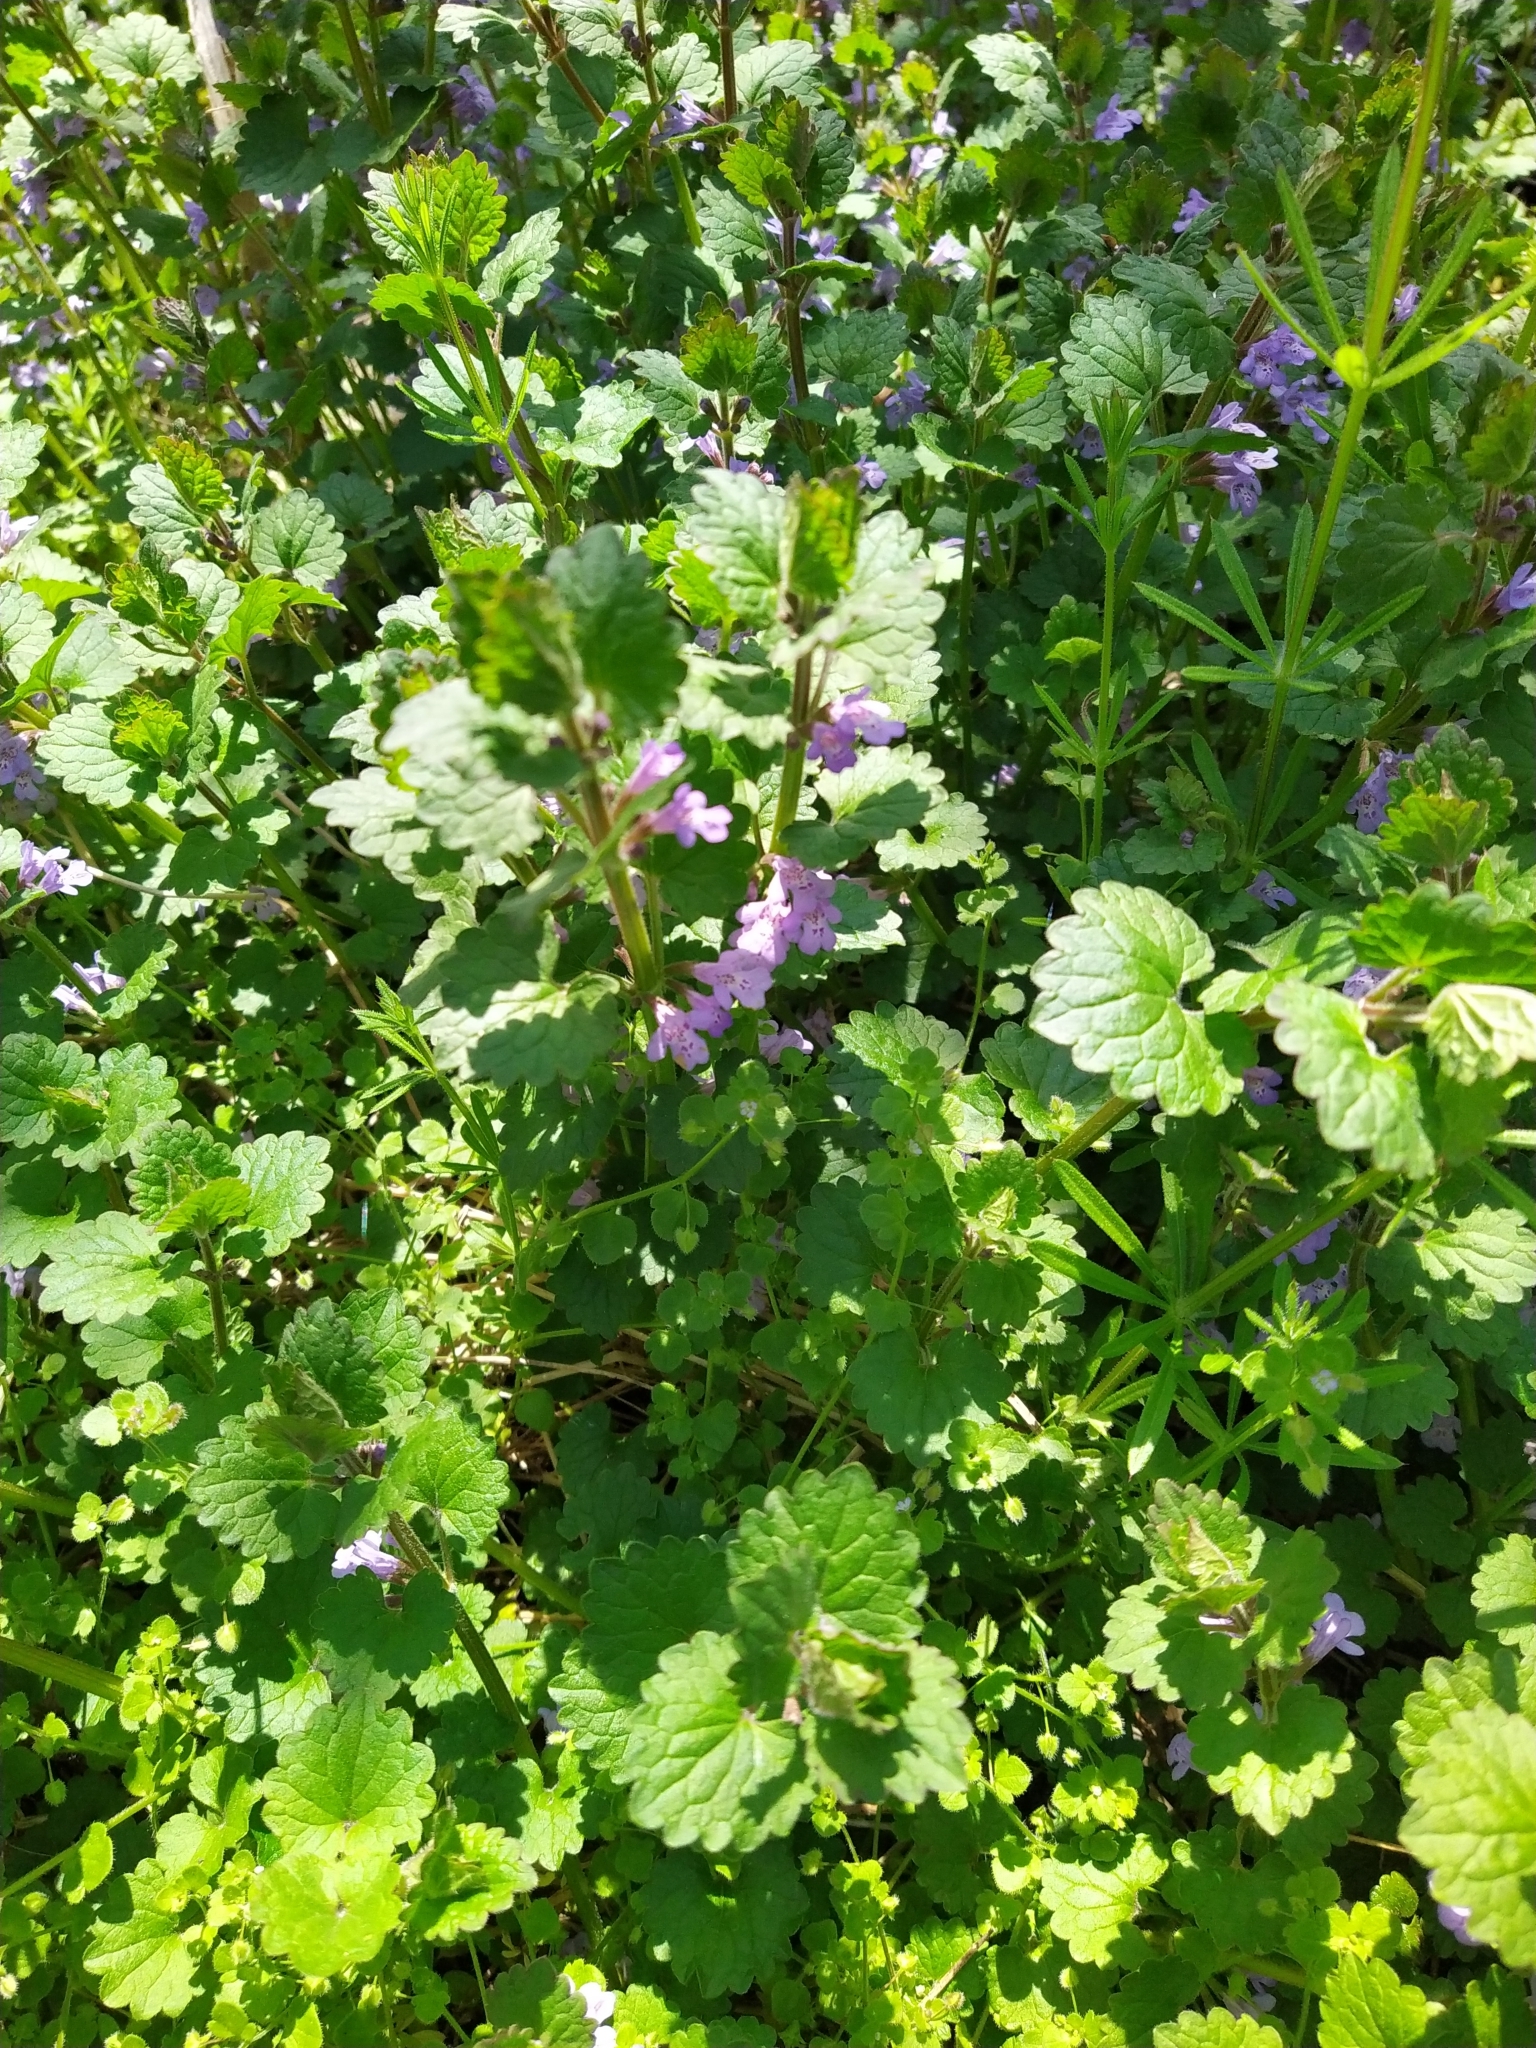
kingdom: Plantae
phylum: Tracheophyta
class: Magnoliopsida
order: Lamiales
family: Lamiaceae
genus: Glechoma
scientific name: Glechoma hederacea
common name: Ground ivy
